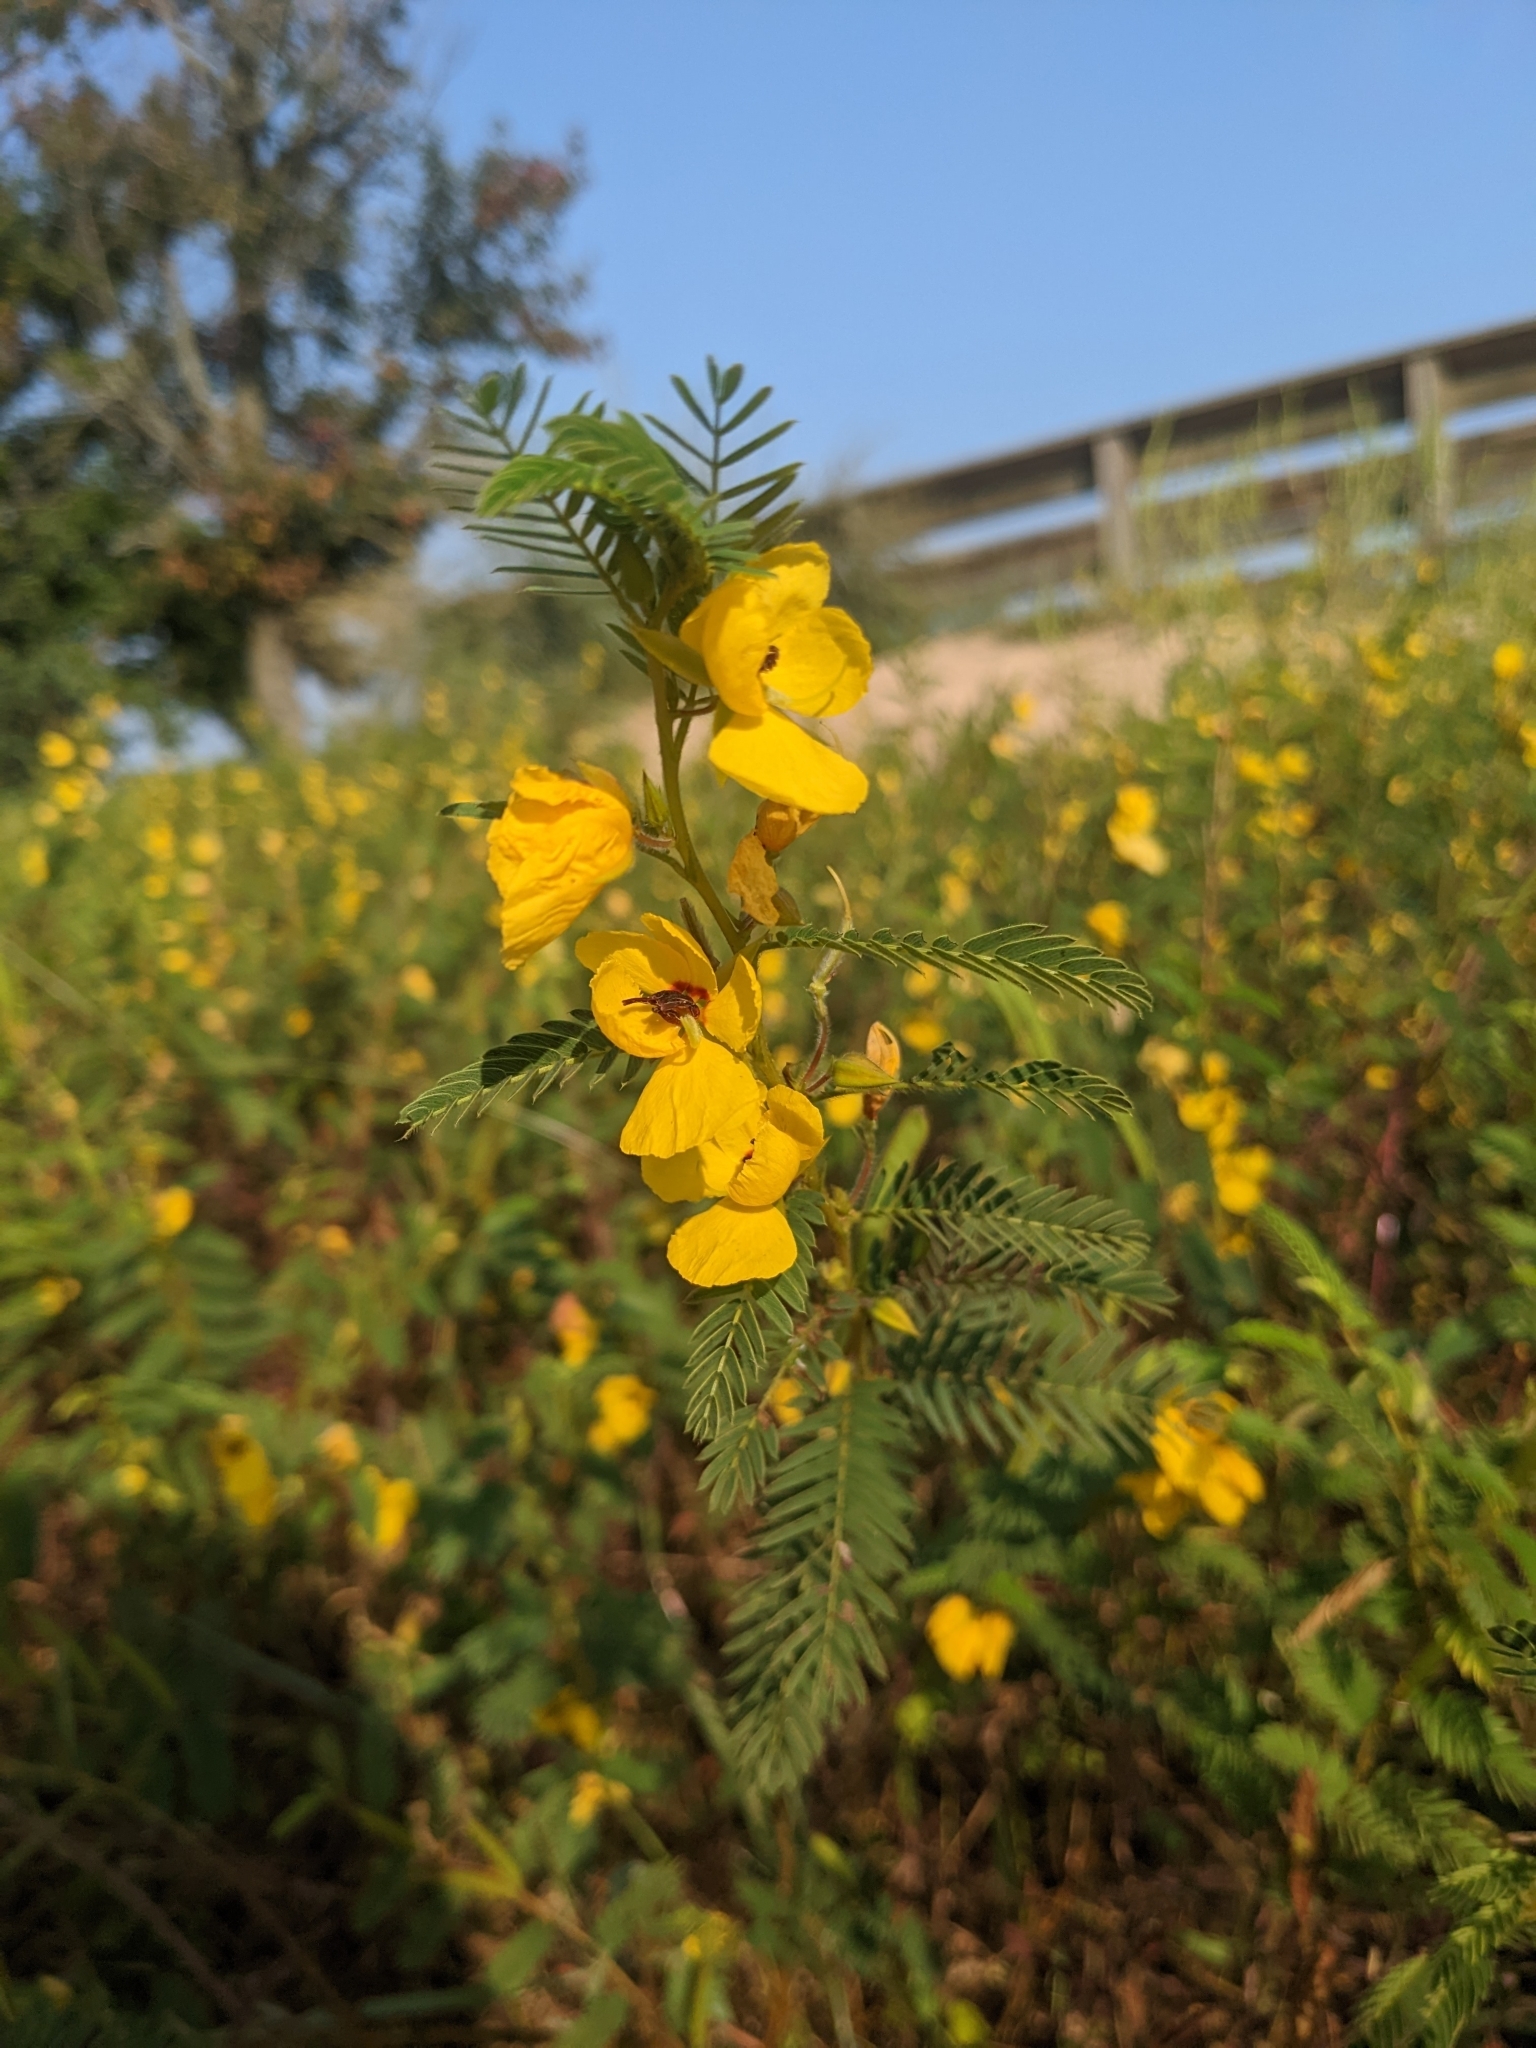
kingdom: Plantae
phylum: Tracheophyta
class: Magnoliopsida
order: Fabales
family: Fabaceae
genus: Chamaecrista
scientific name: Chamaecrista fasciculata
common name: Golden cassia
